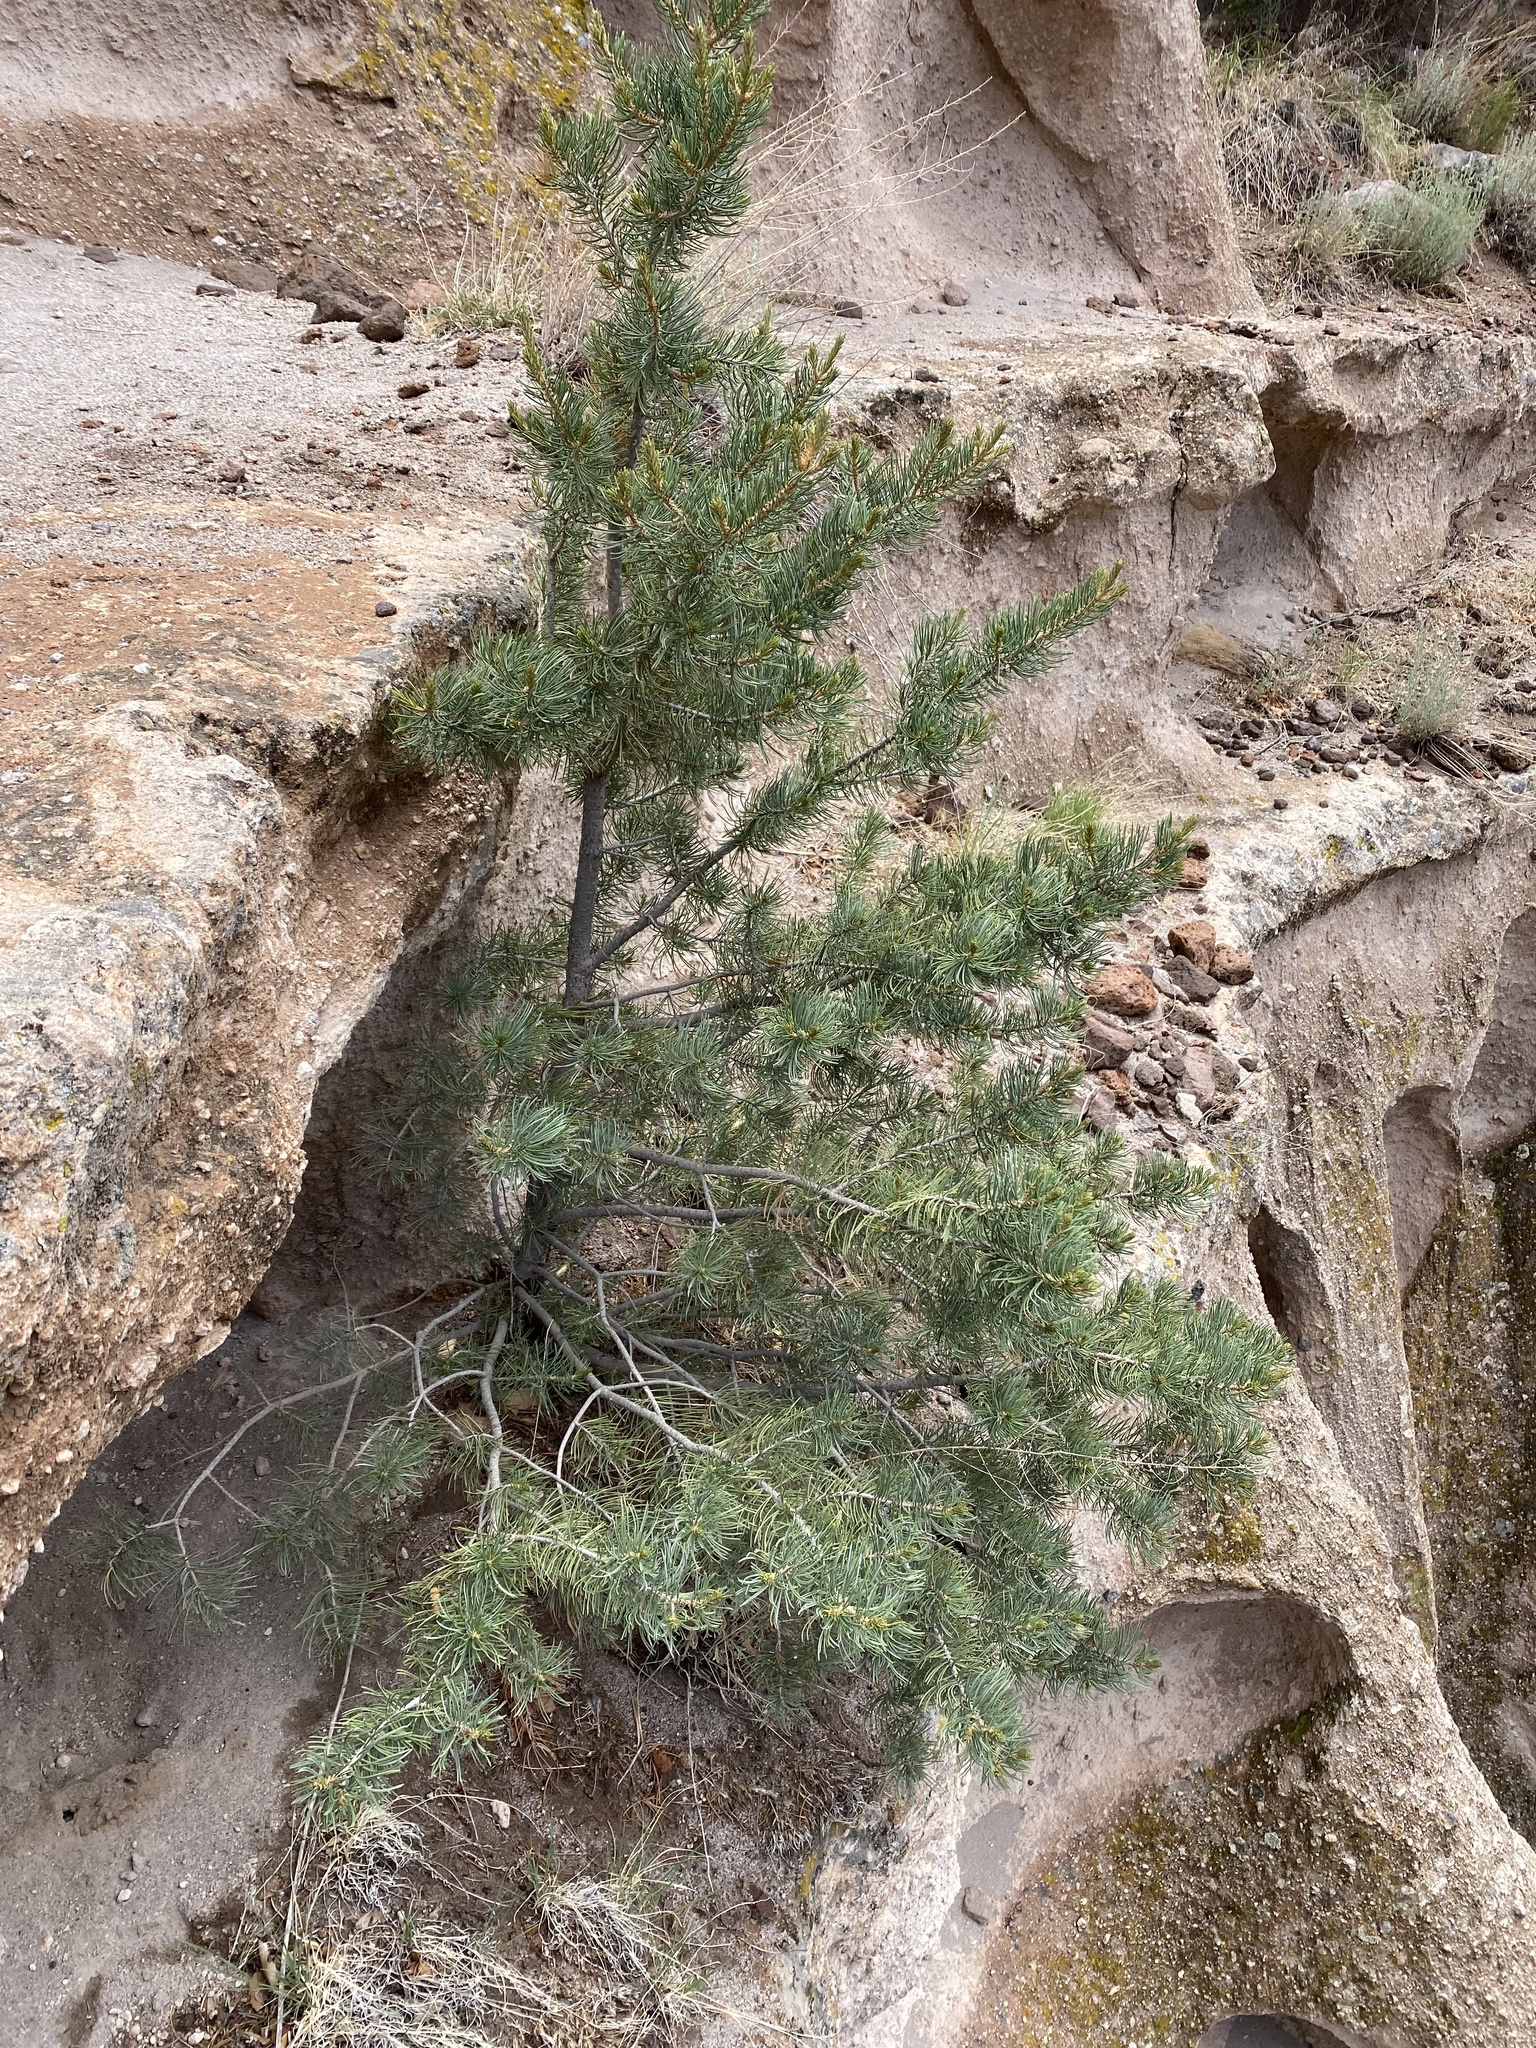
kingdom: Plantae
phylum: Tracheophyta
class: Pinopsida
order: Pinales
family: Pinaceae
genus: Pinus
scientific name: Pinus edulis
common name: Colorado pinyon
